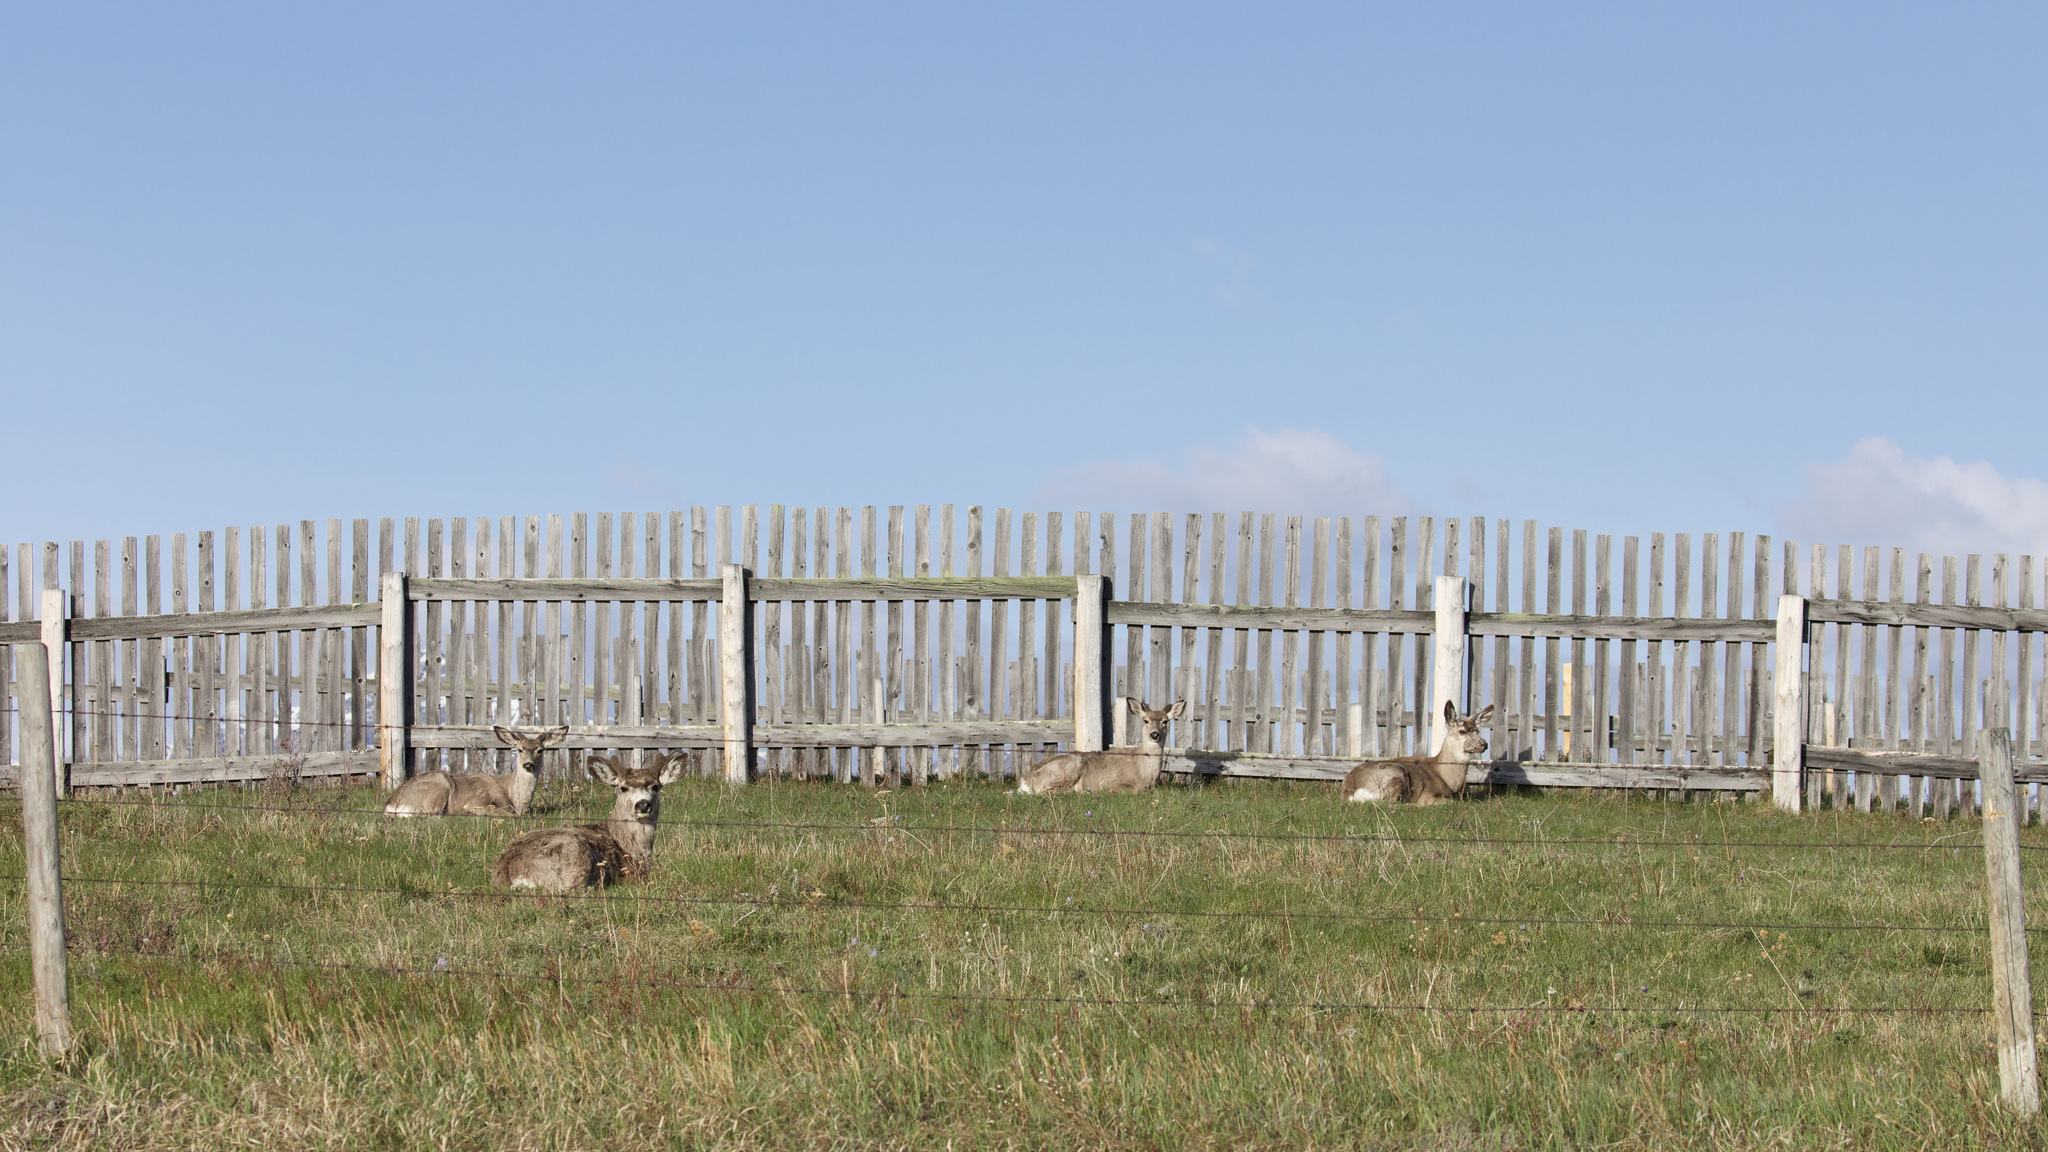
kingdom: Animalia
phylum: Chordata
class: Mammalia
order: Artiodactyla
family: Cervidae
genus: Odocoileus
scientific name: Odocoileus hemionus
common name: Mule deer
